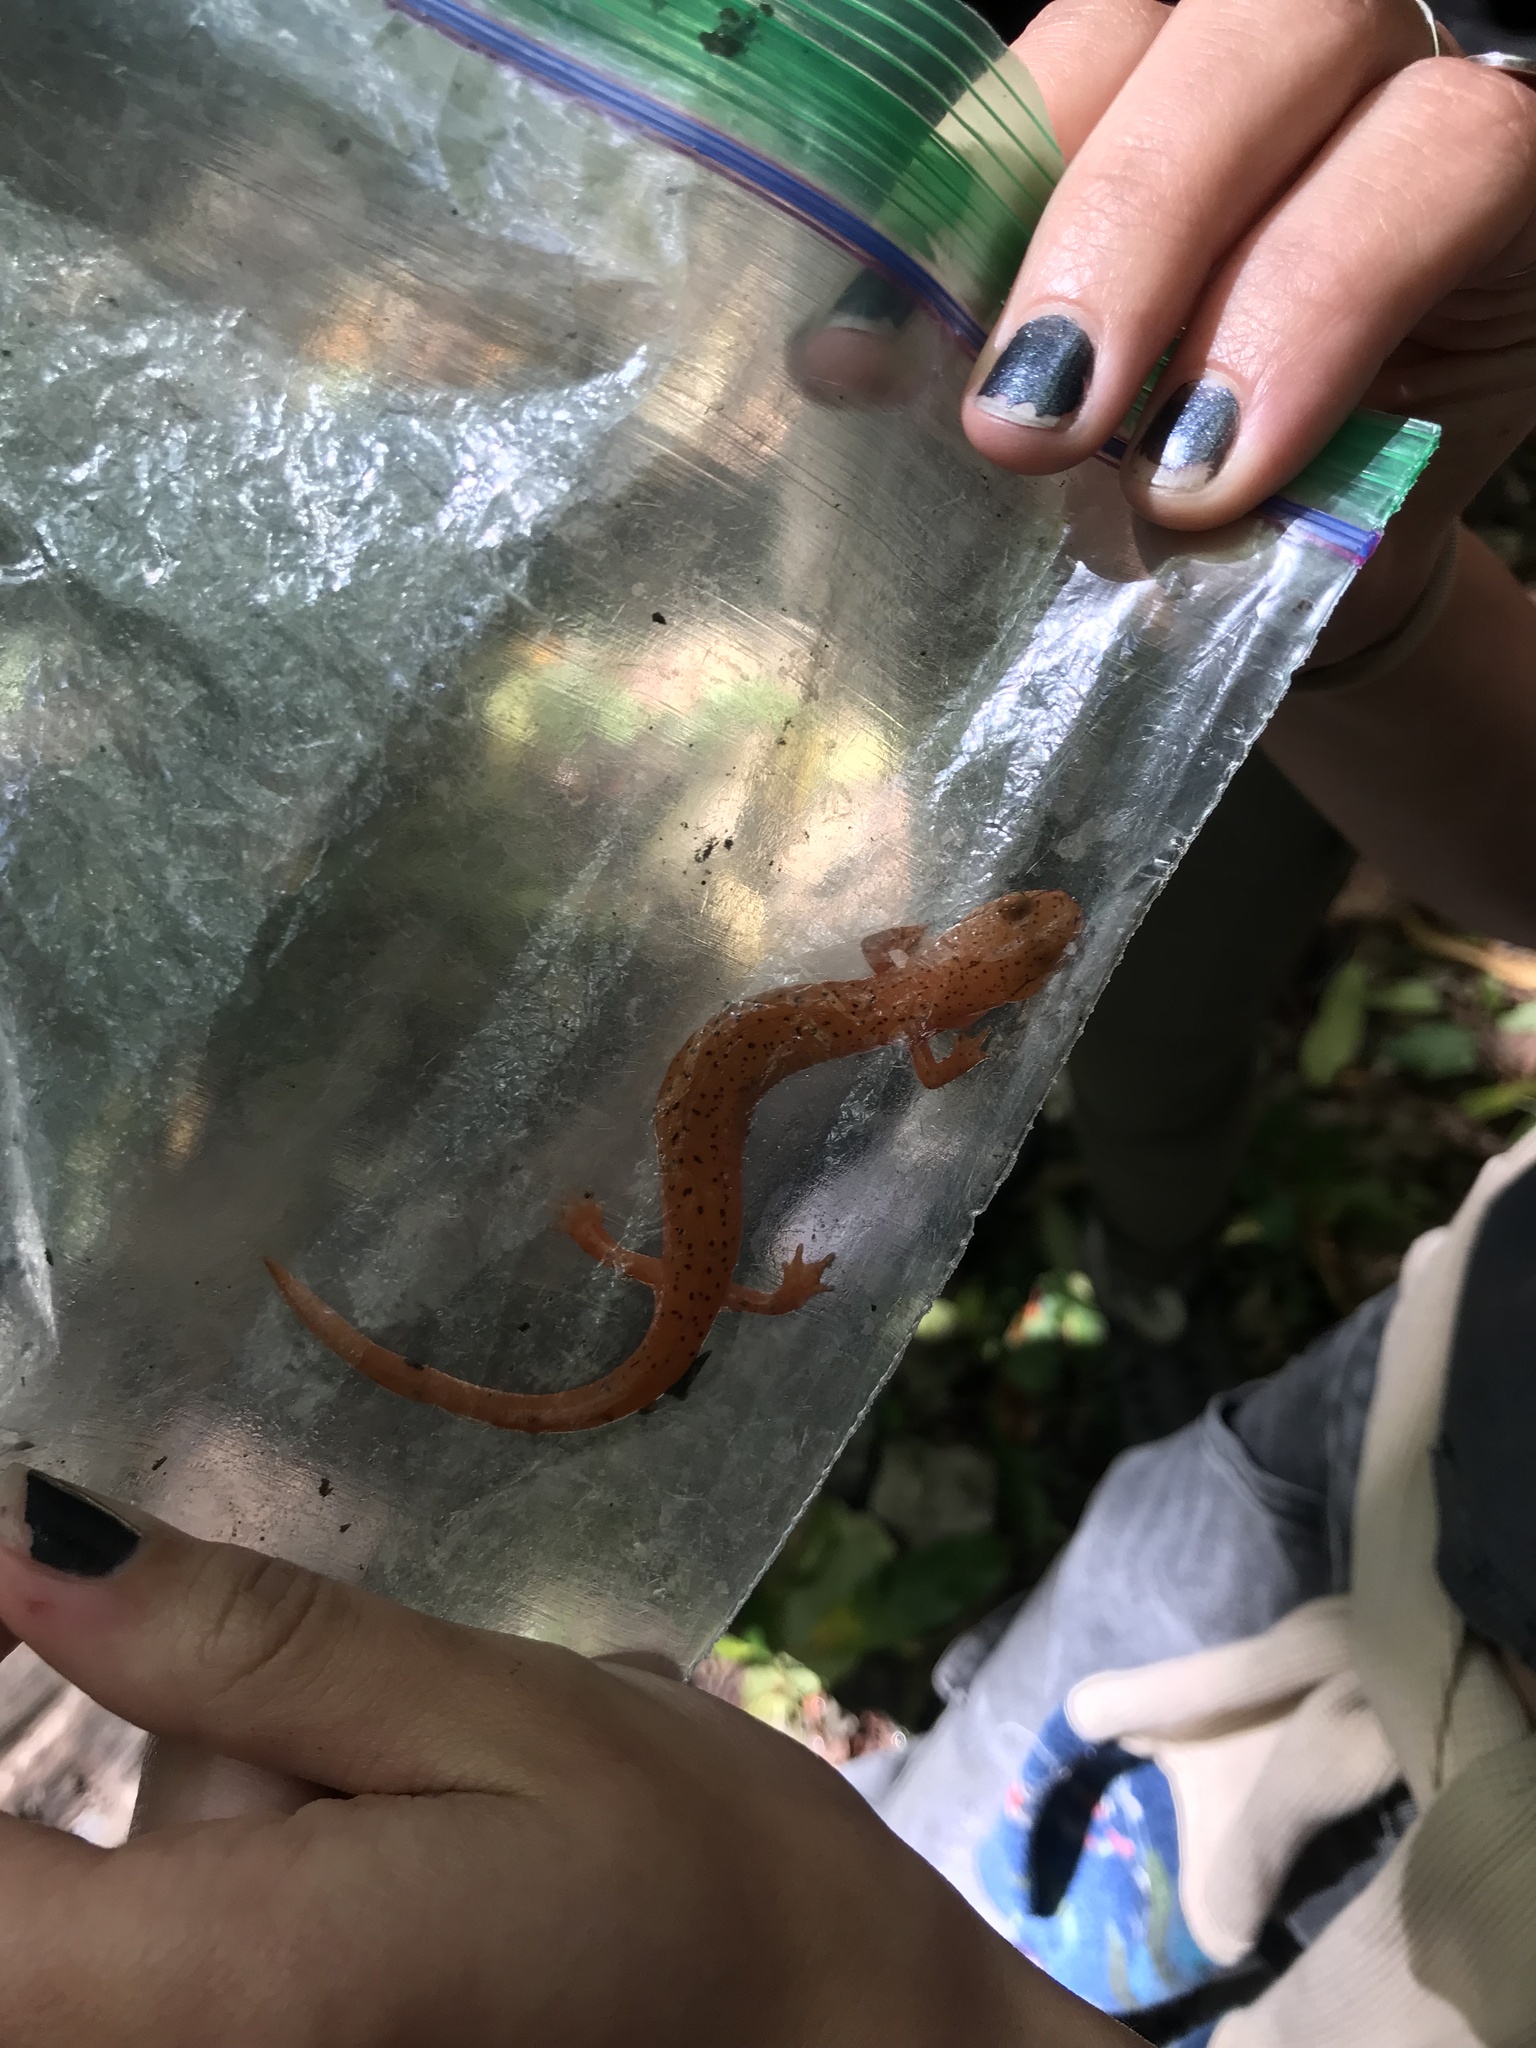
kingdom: Animalia
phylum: Chordata
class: Amphibia
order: Caudata
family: Plethodontidae
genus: Gyrinophilus
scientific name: Gyrinophilus porphyriticus
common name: Spring salamander
